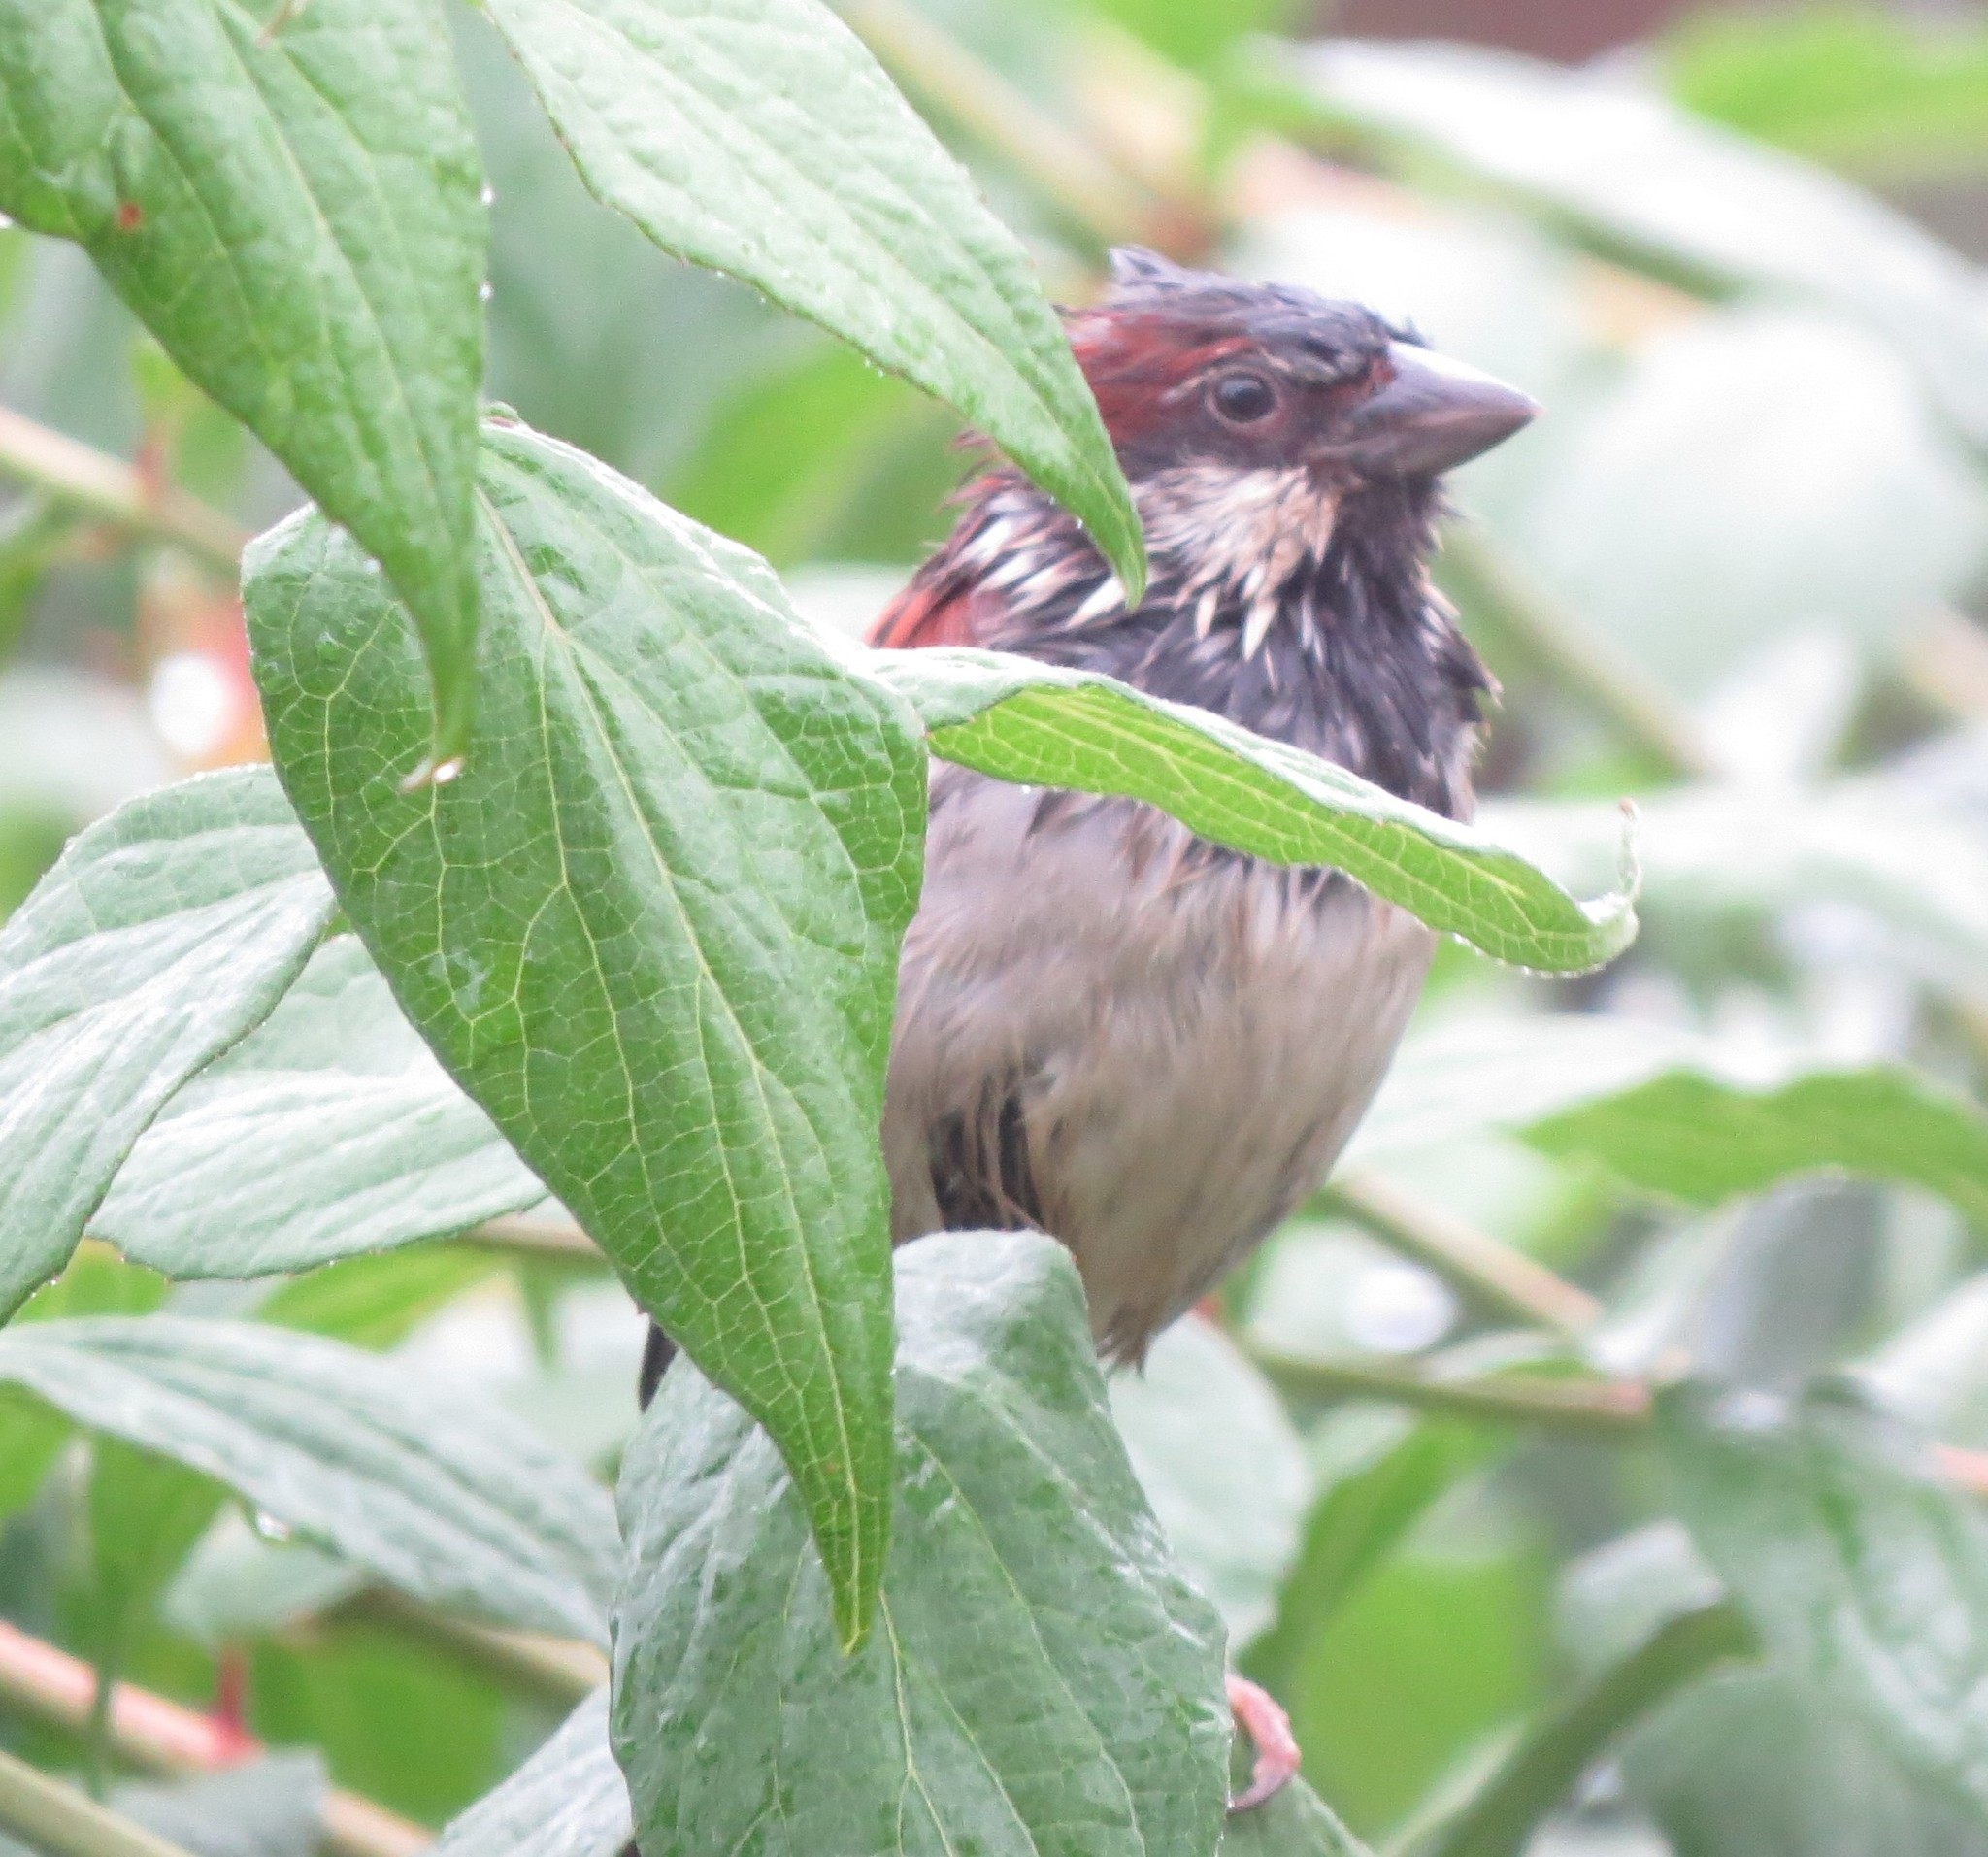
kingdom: Animalia
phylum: Chordata
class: Aves
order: Passeriformes
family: Passeridae
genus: Passer
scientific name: Passer domesticus
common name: House sparrow
